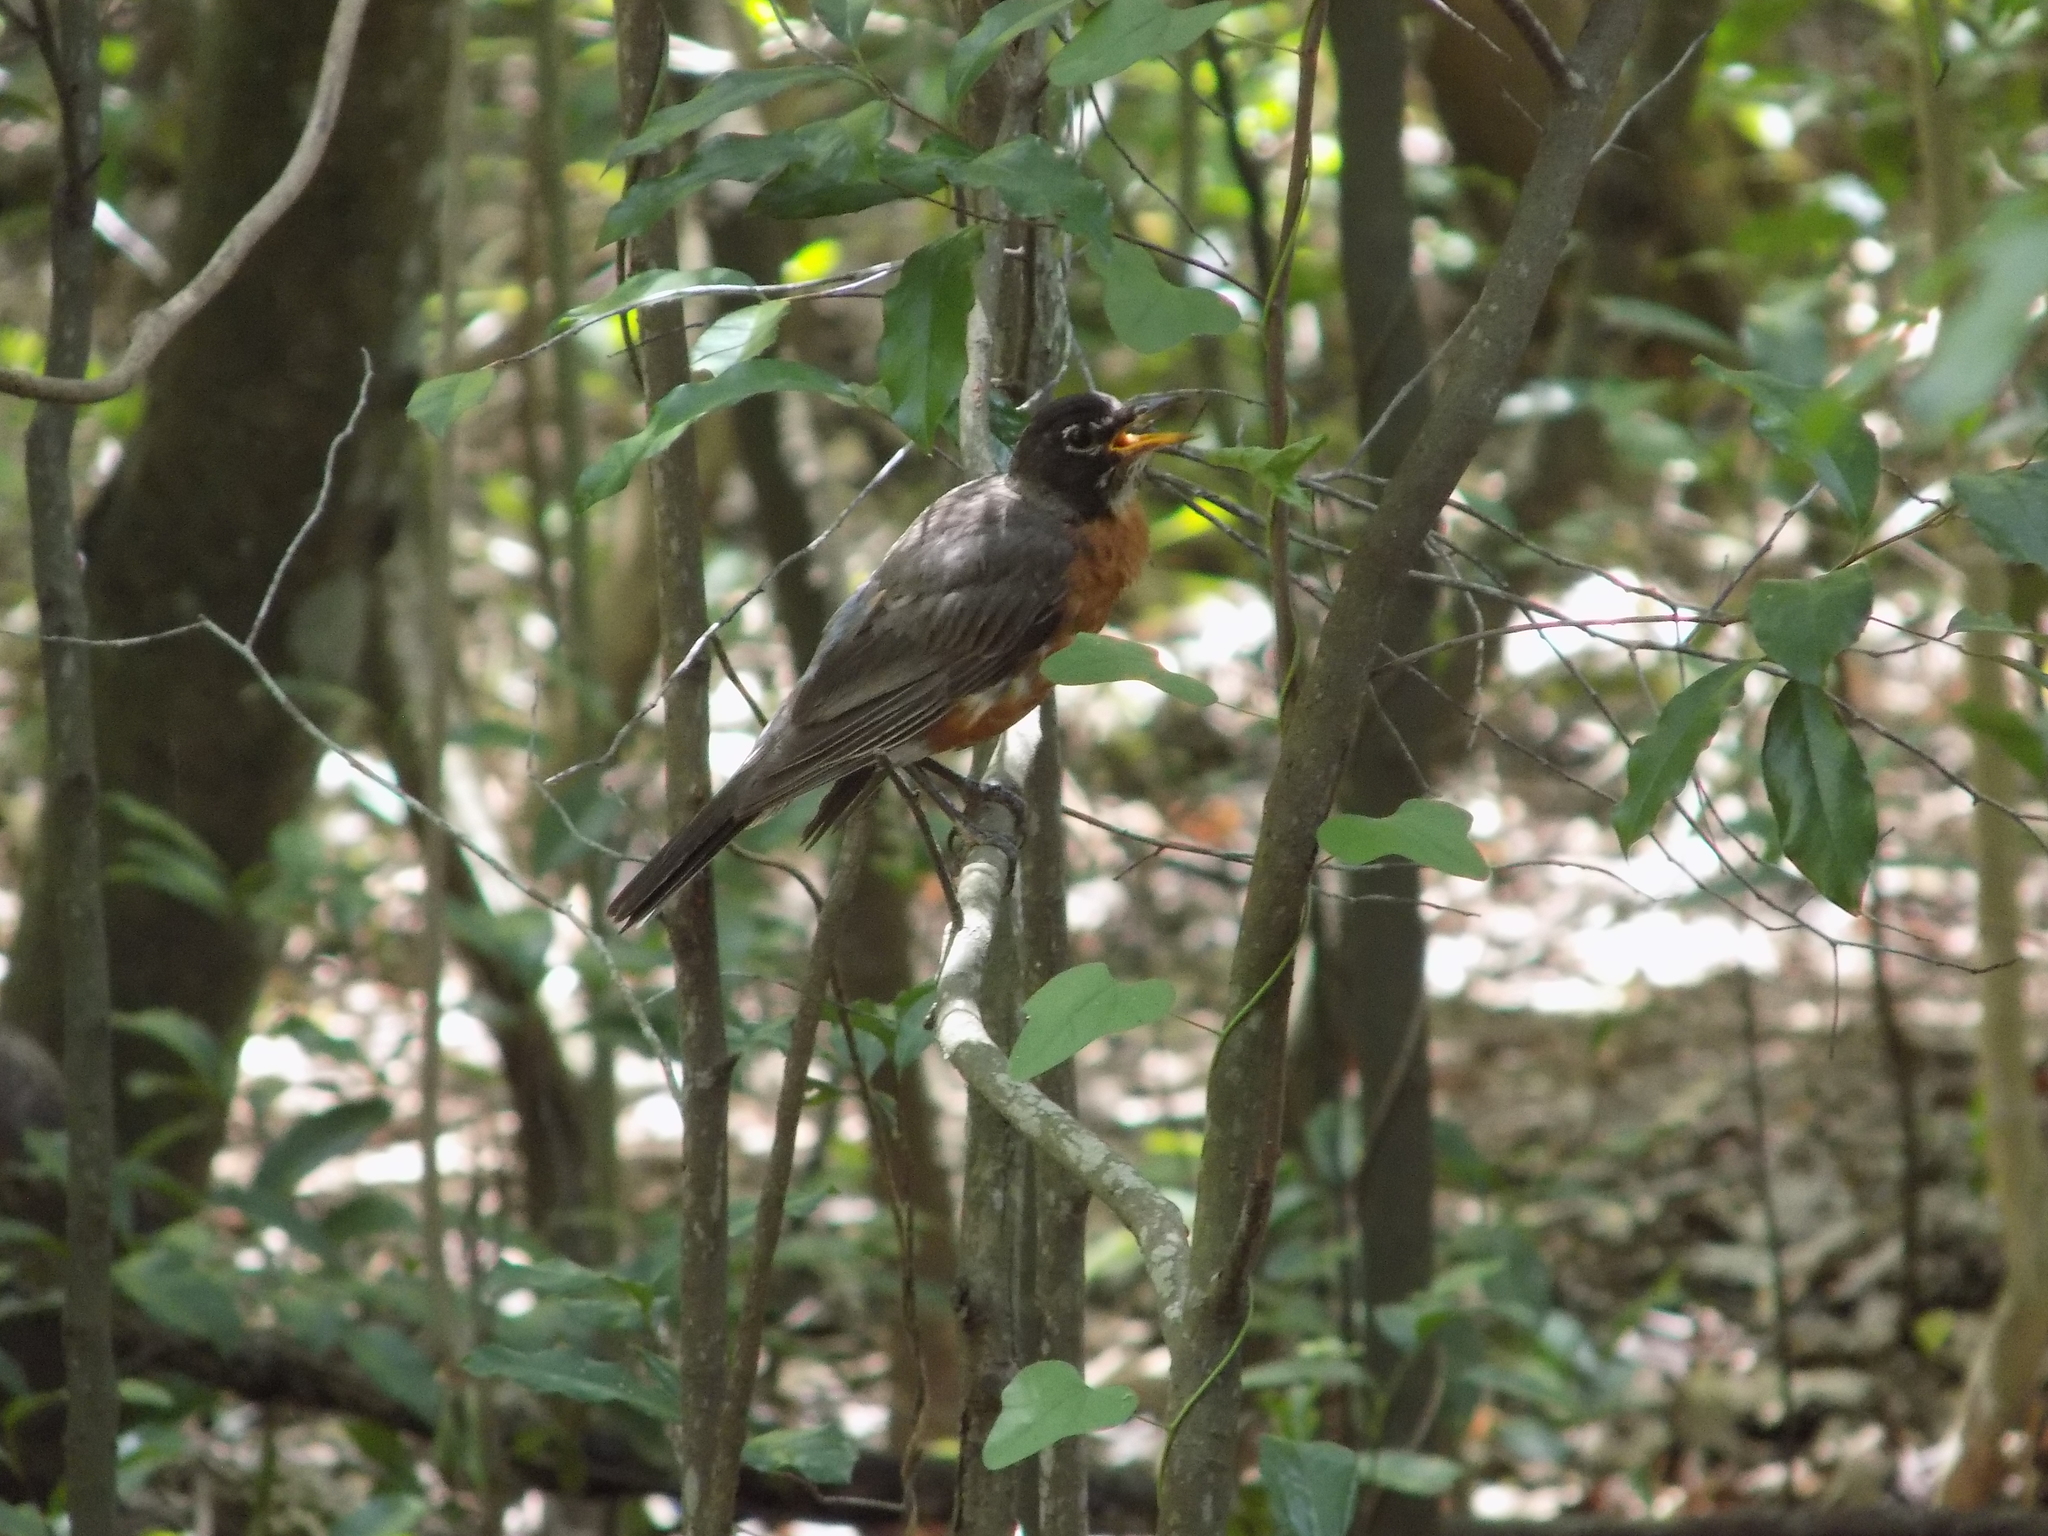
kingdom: Animalia
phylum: Chordata
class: Aves
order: Passeriformes
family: Turdidae
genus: Turdus
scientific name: Turdus migratorius
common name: American robin
